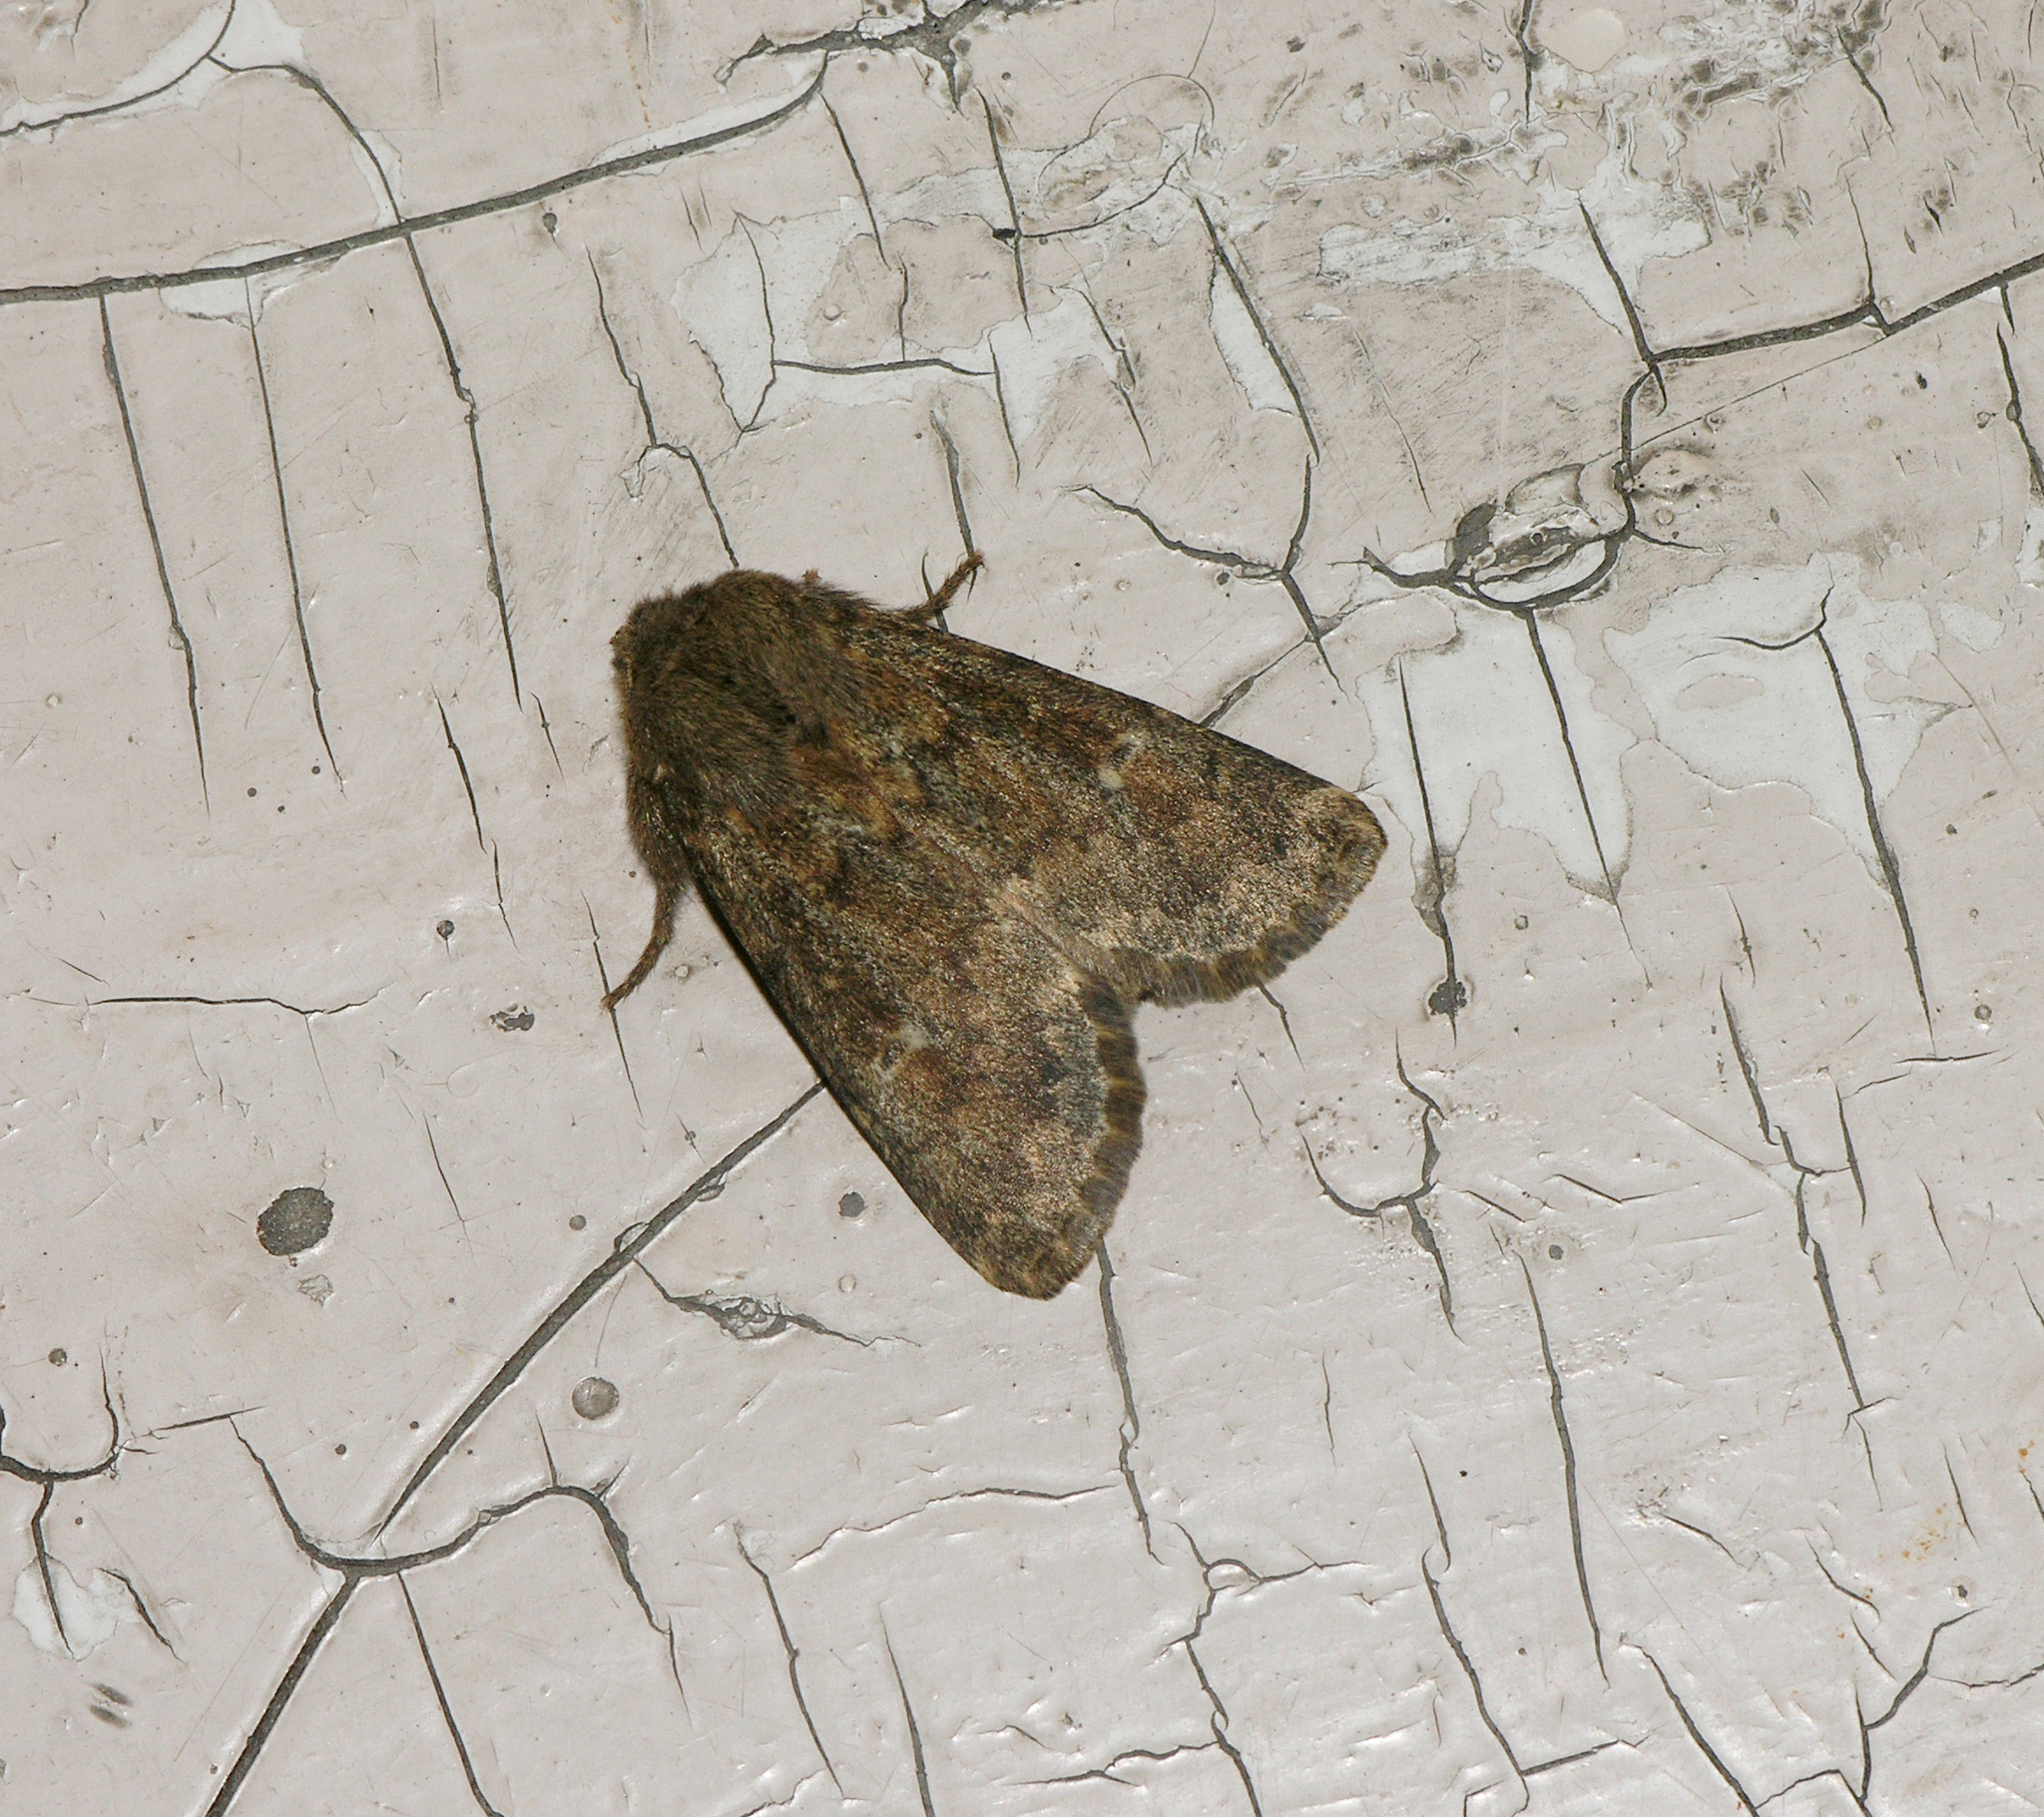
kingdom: Animalia
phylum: Arthropoda
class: Insecta
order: Lepidoptera
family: Noctuidae
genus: Dasypolia
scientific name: Dasypolia templi
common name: Brindled ochre
